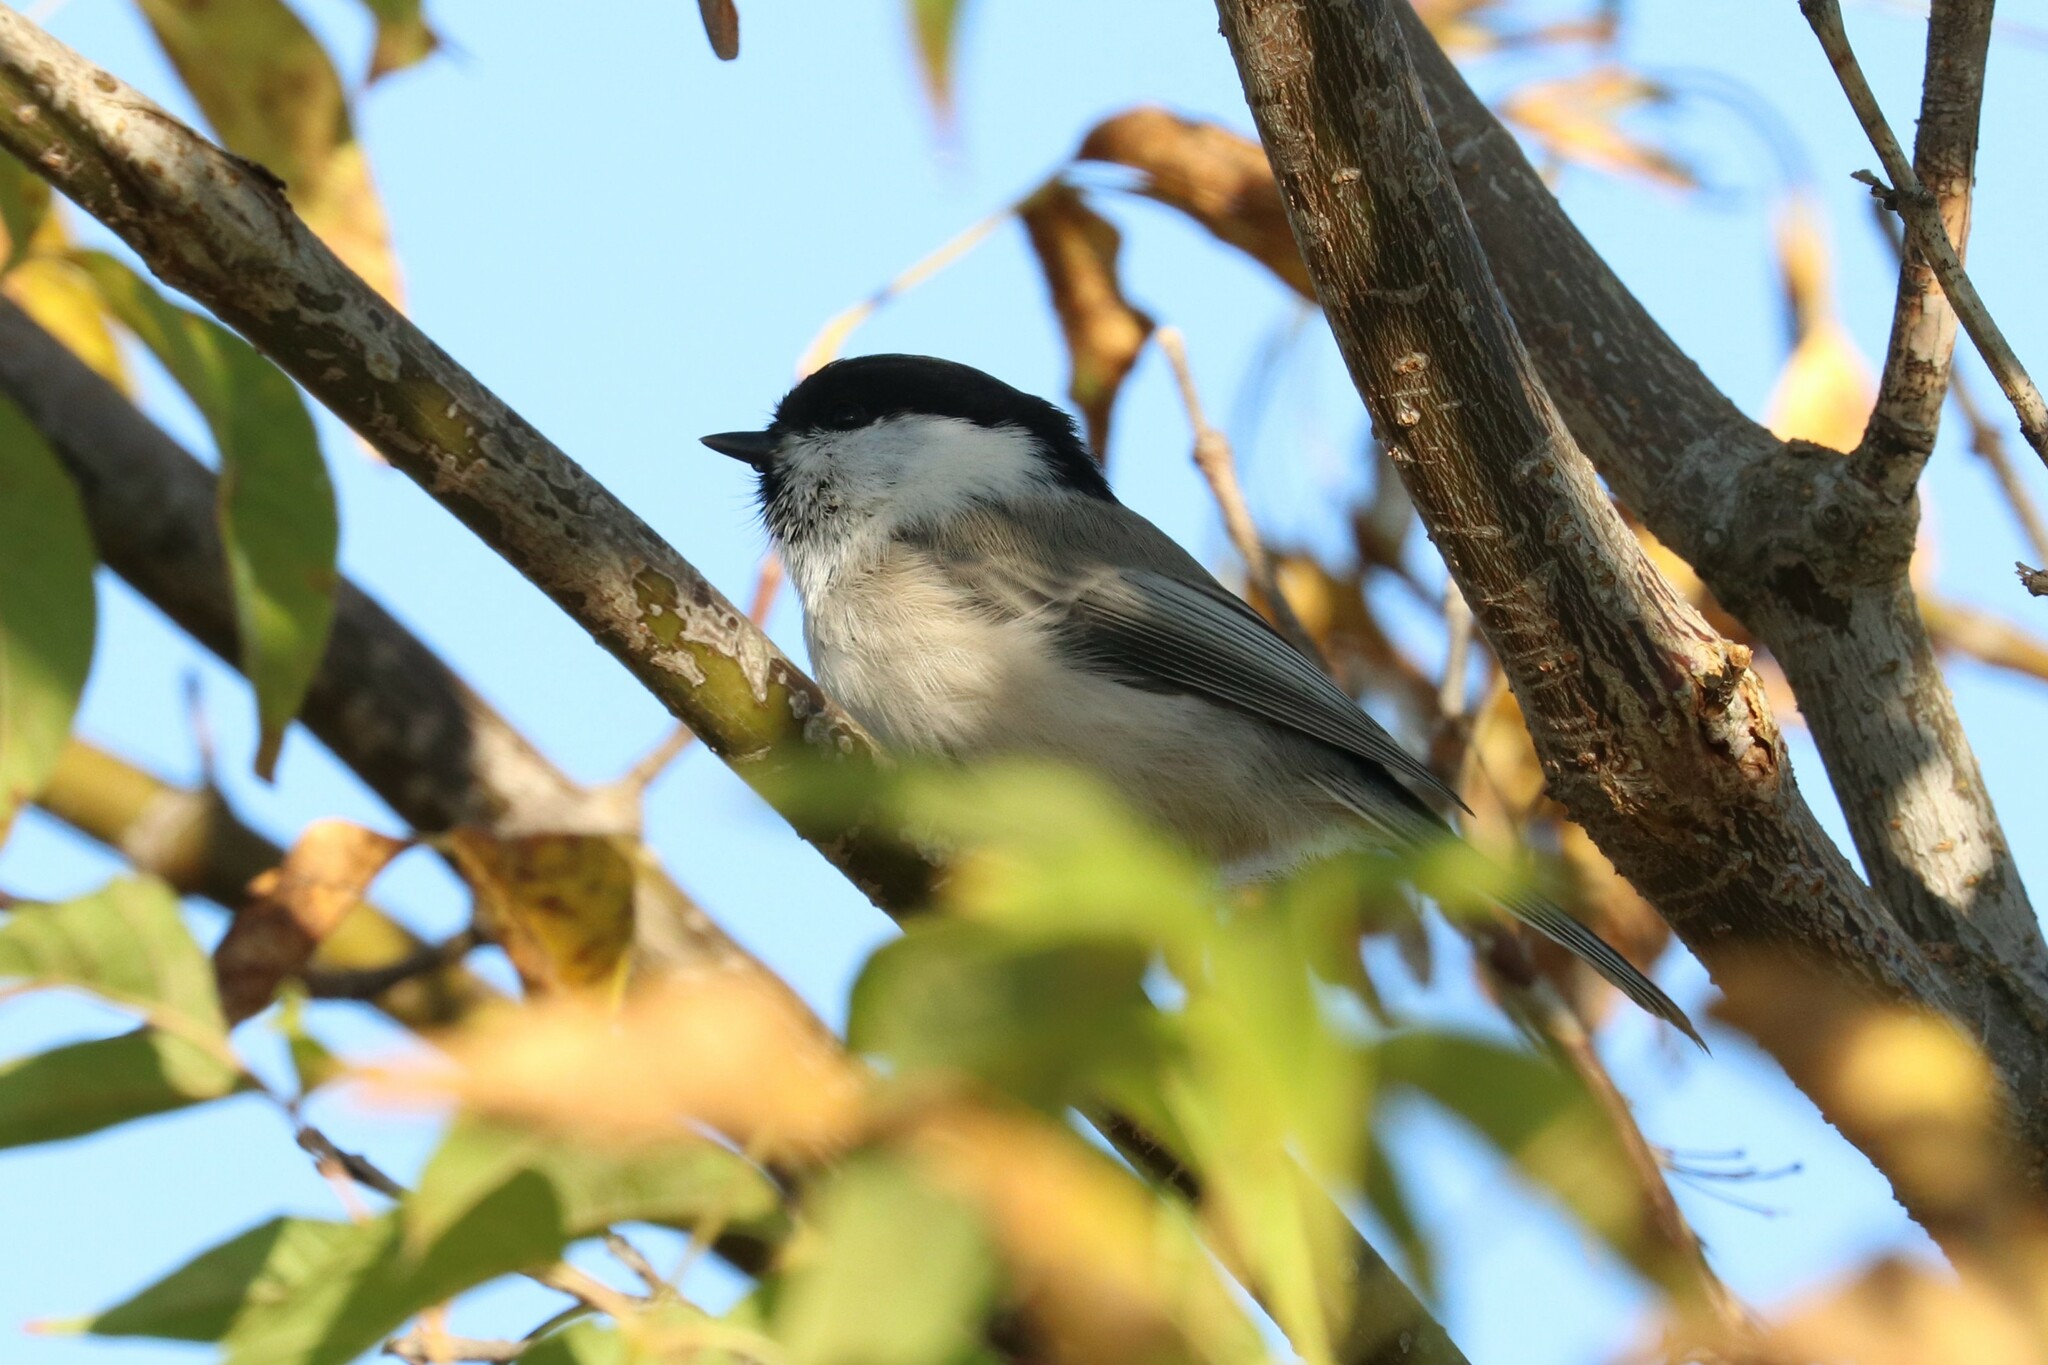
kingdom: Animalia
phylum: Chordata
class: Aves
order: Passeriformes
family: Paridae
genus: Poecile
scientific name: Poecile montanus
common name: Willow tit
